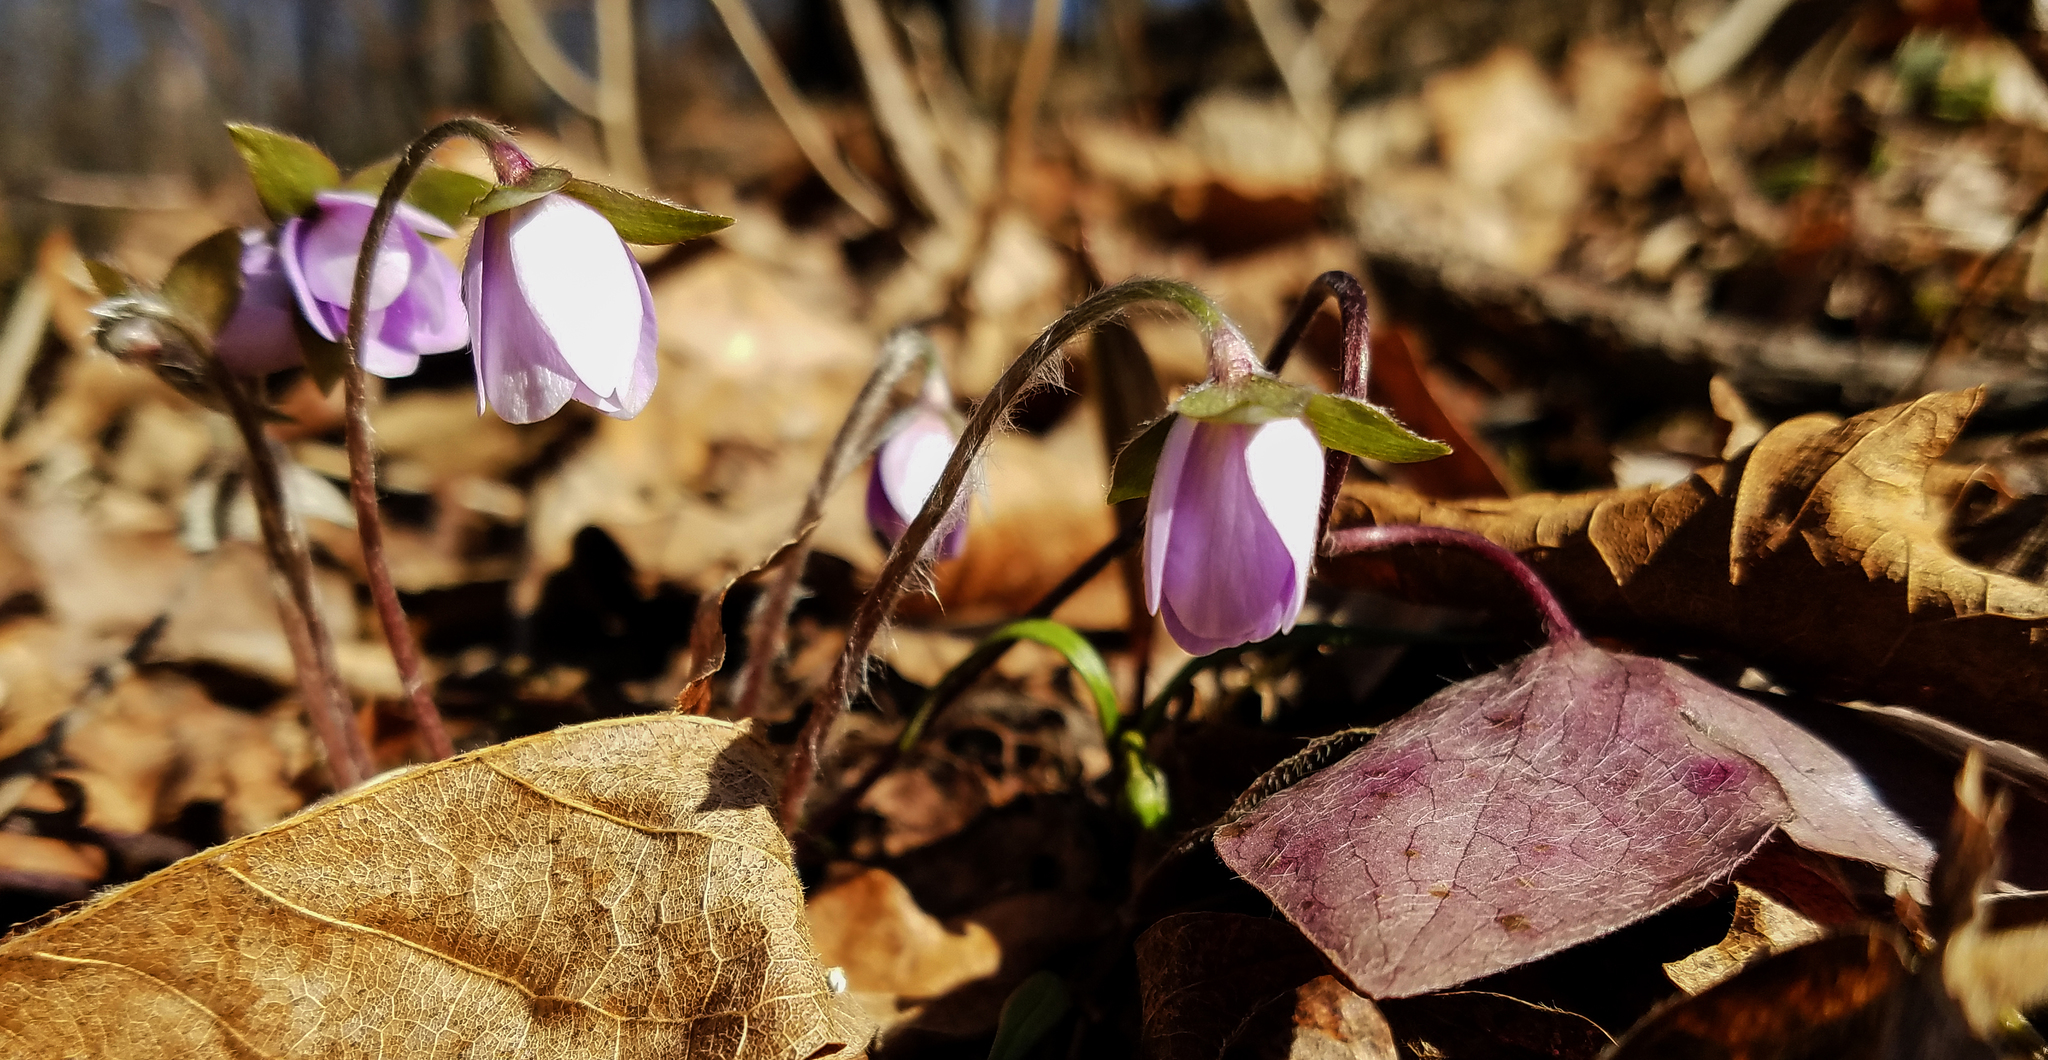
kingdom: Plantae
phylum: Tracheophyta
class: Magnoliopsida
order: Ranunculales
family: Ranunculaceae
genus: Hepatica
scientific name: Hepatica acutiloba
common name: Sharp-lobed hepatica
